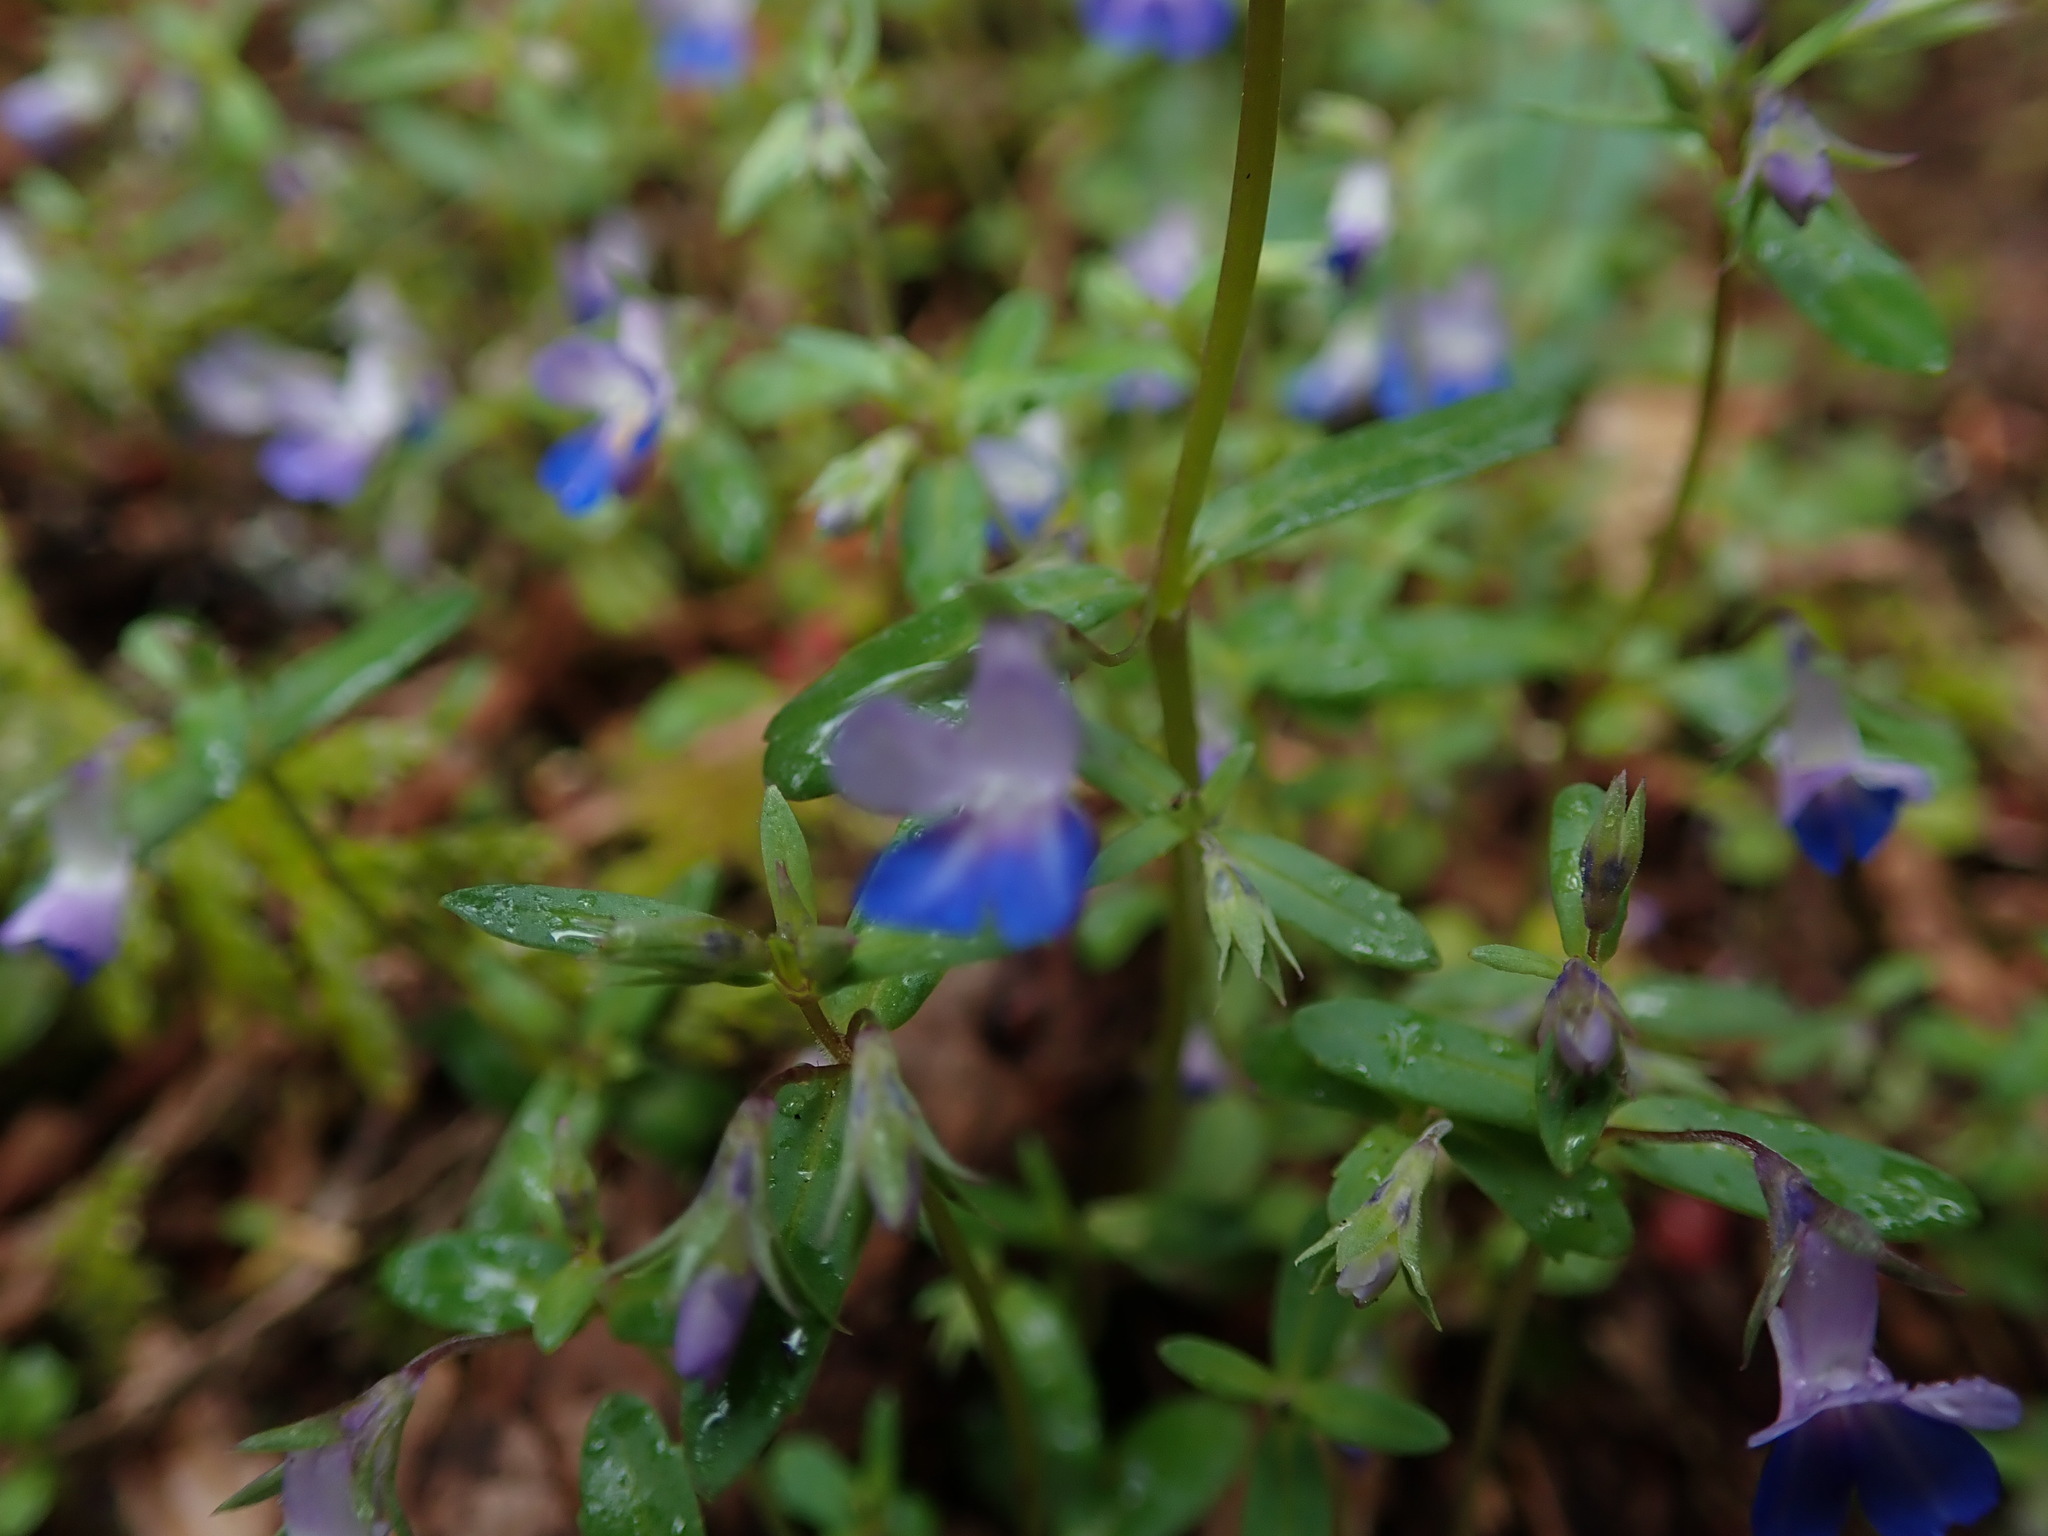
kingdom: Plantae
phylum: Tracheophyta
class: Magnoliopsida
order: Lamiales
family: Plantaginaceae
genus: Collinsia
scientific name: Collinsia parviflora
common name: Blue-lips
